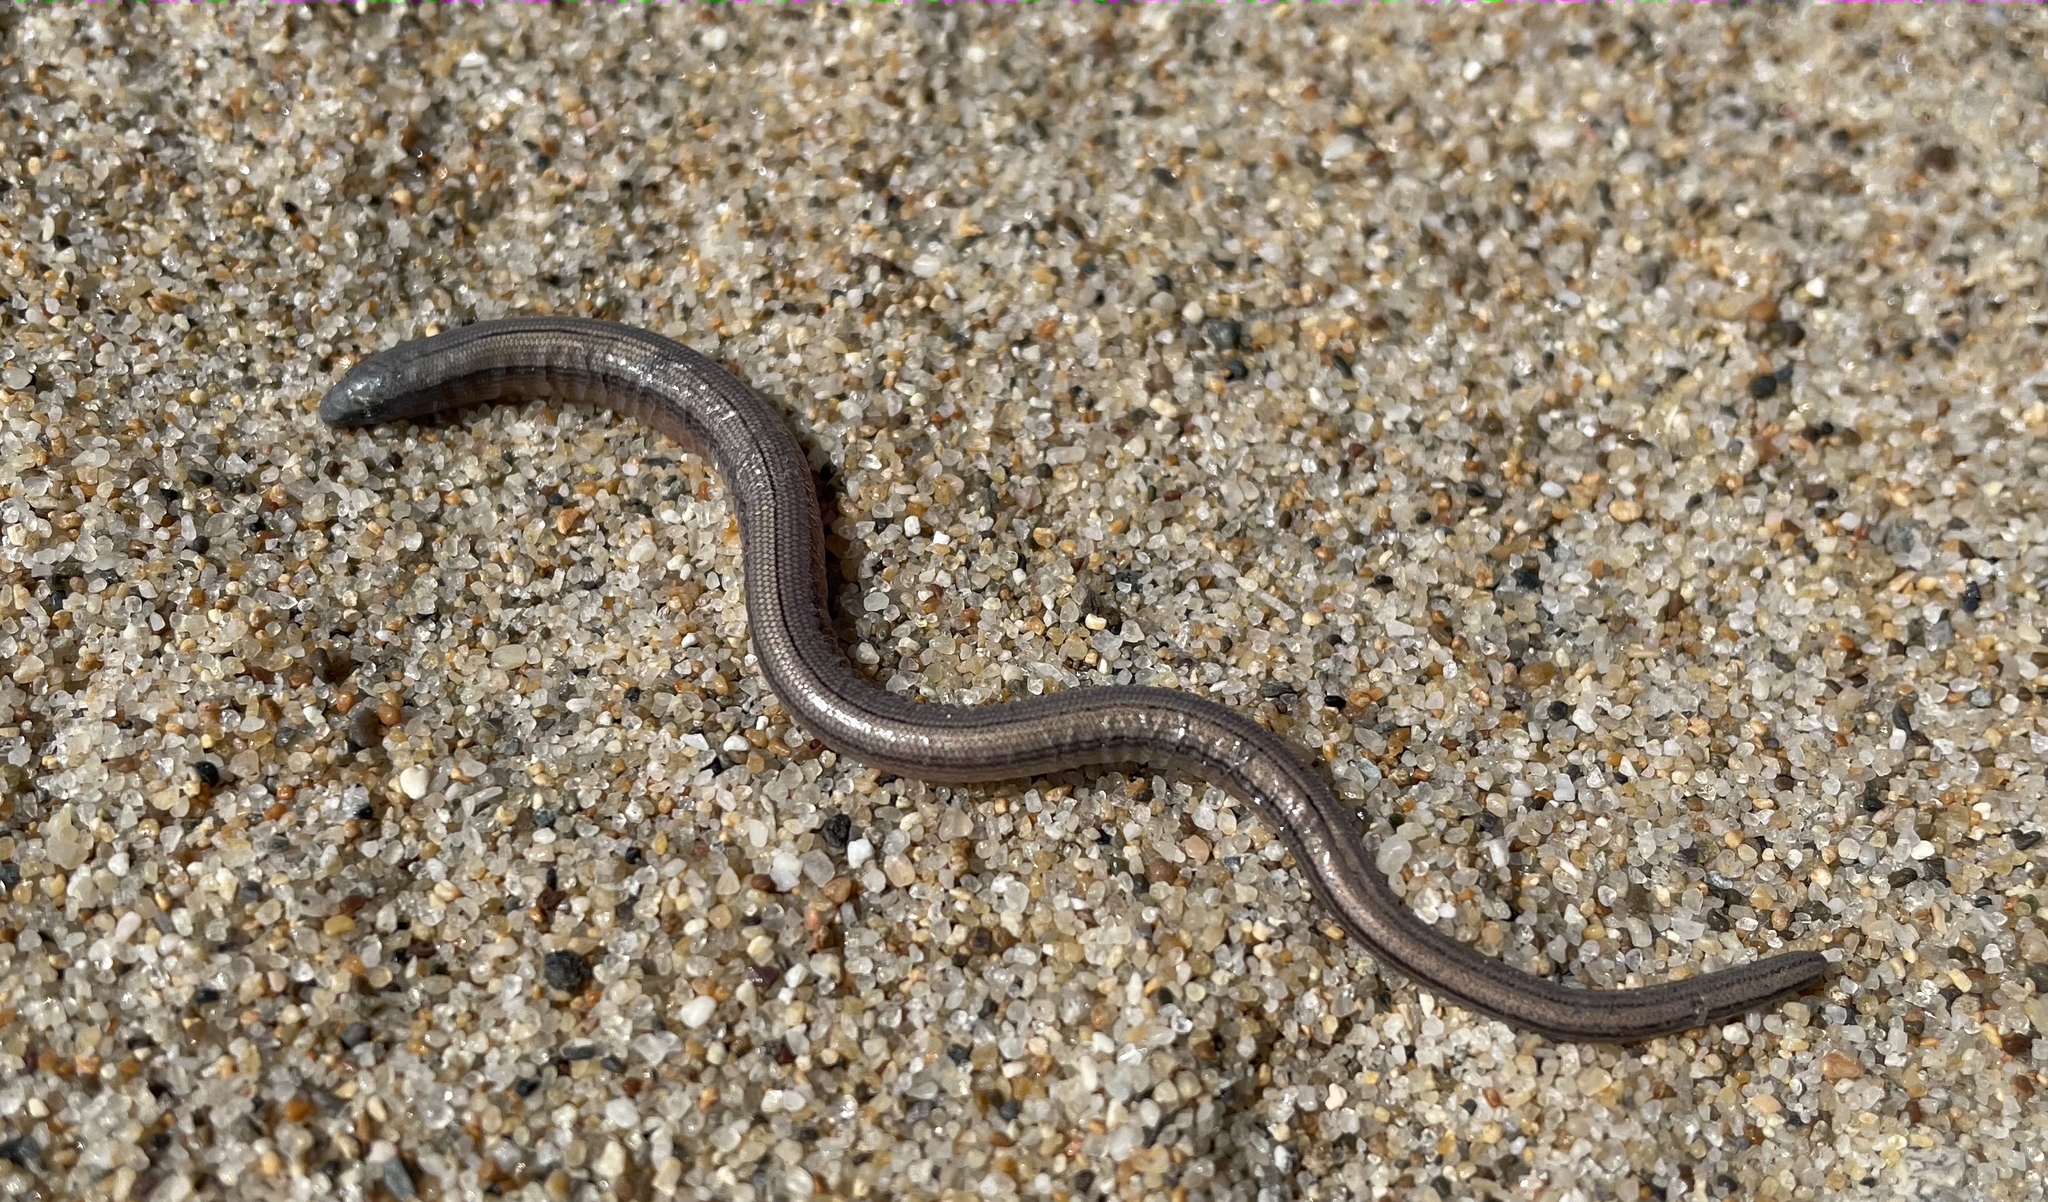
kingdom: Animalia
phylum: Chordata
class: Squamata
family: Anguidae
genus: Anniella
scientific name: Anniella pulchra
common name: California legless lizard
